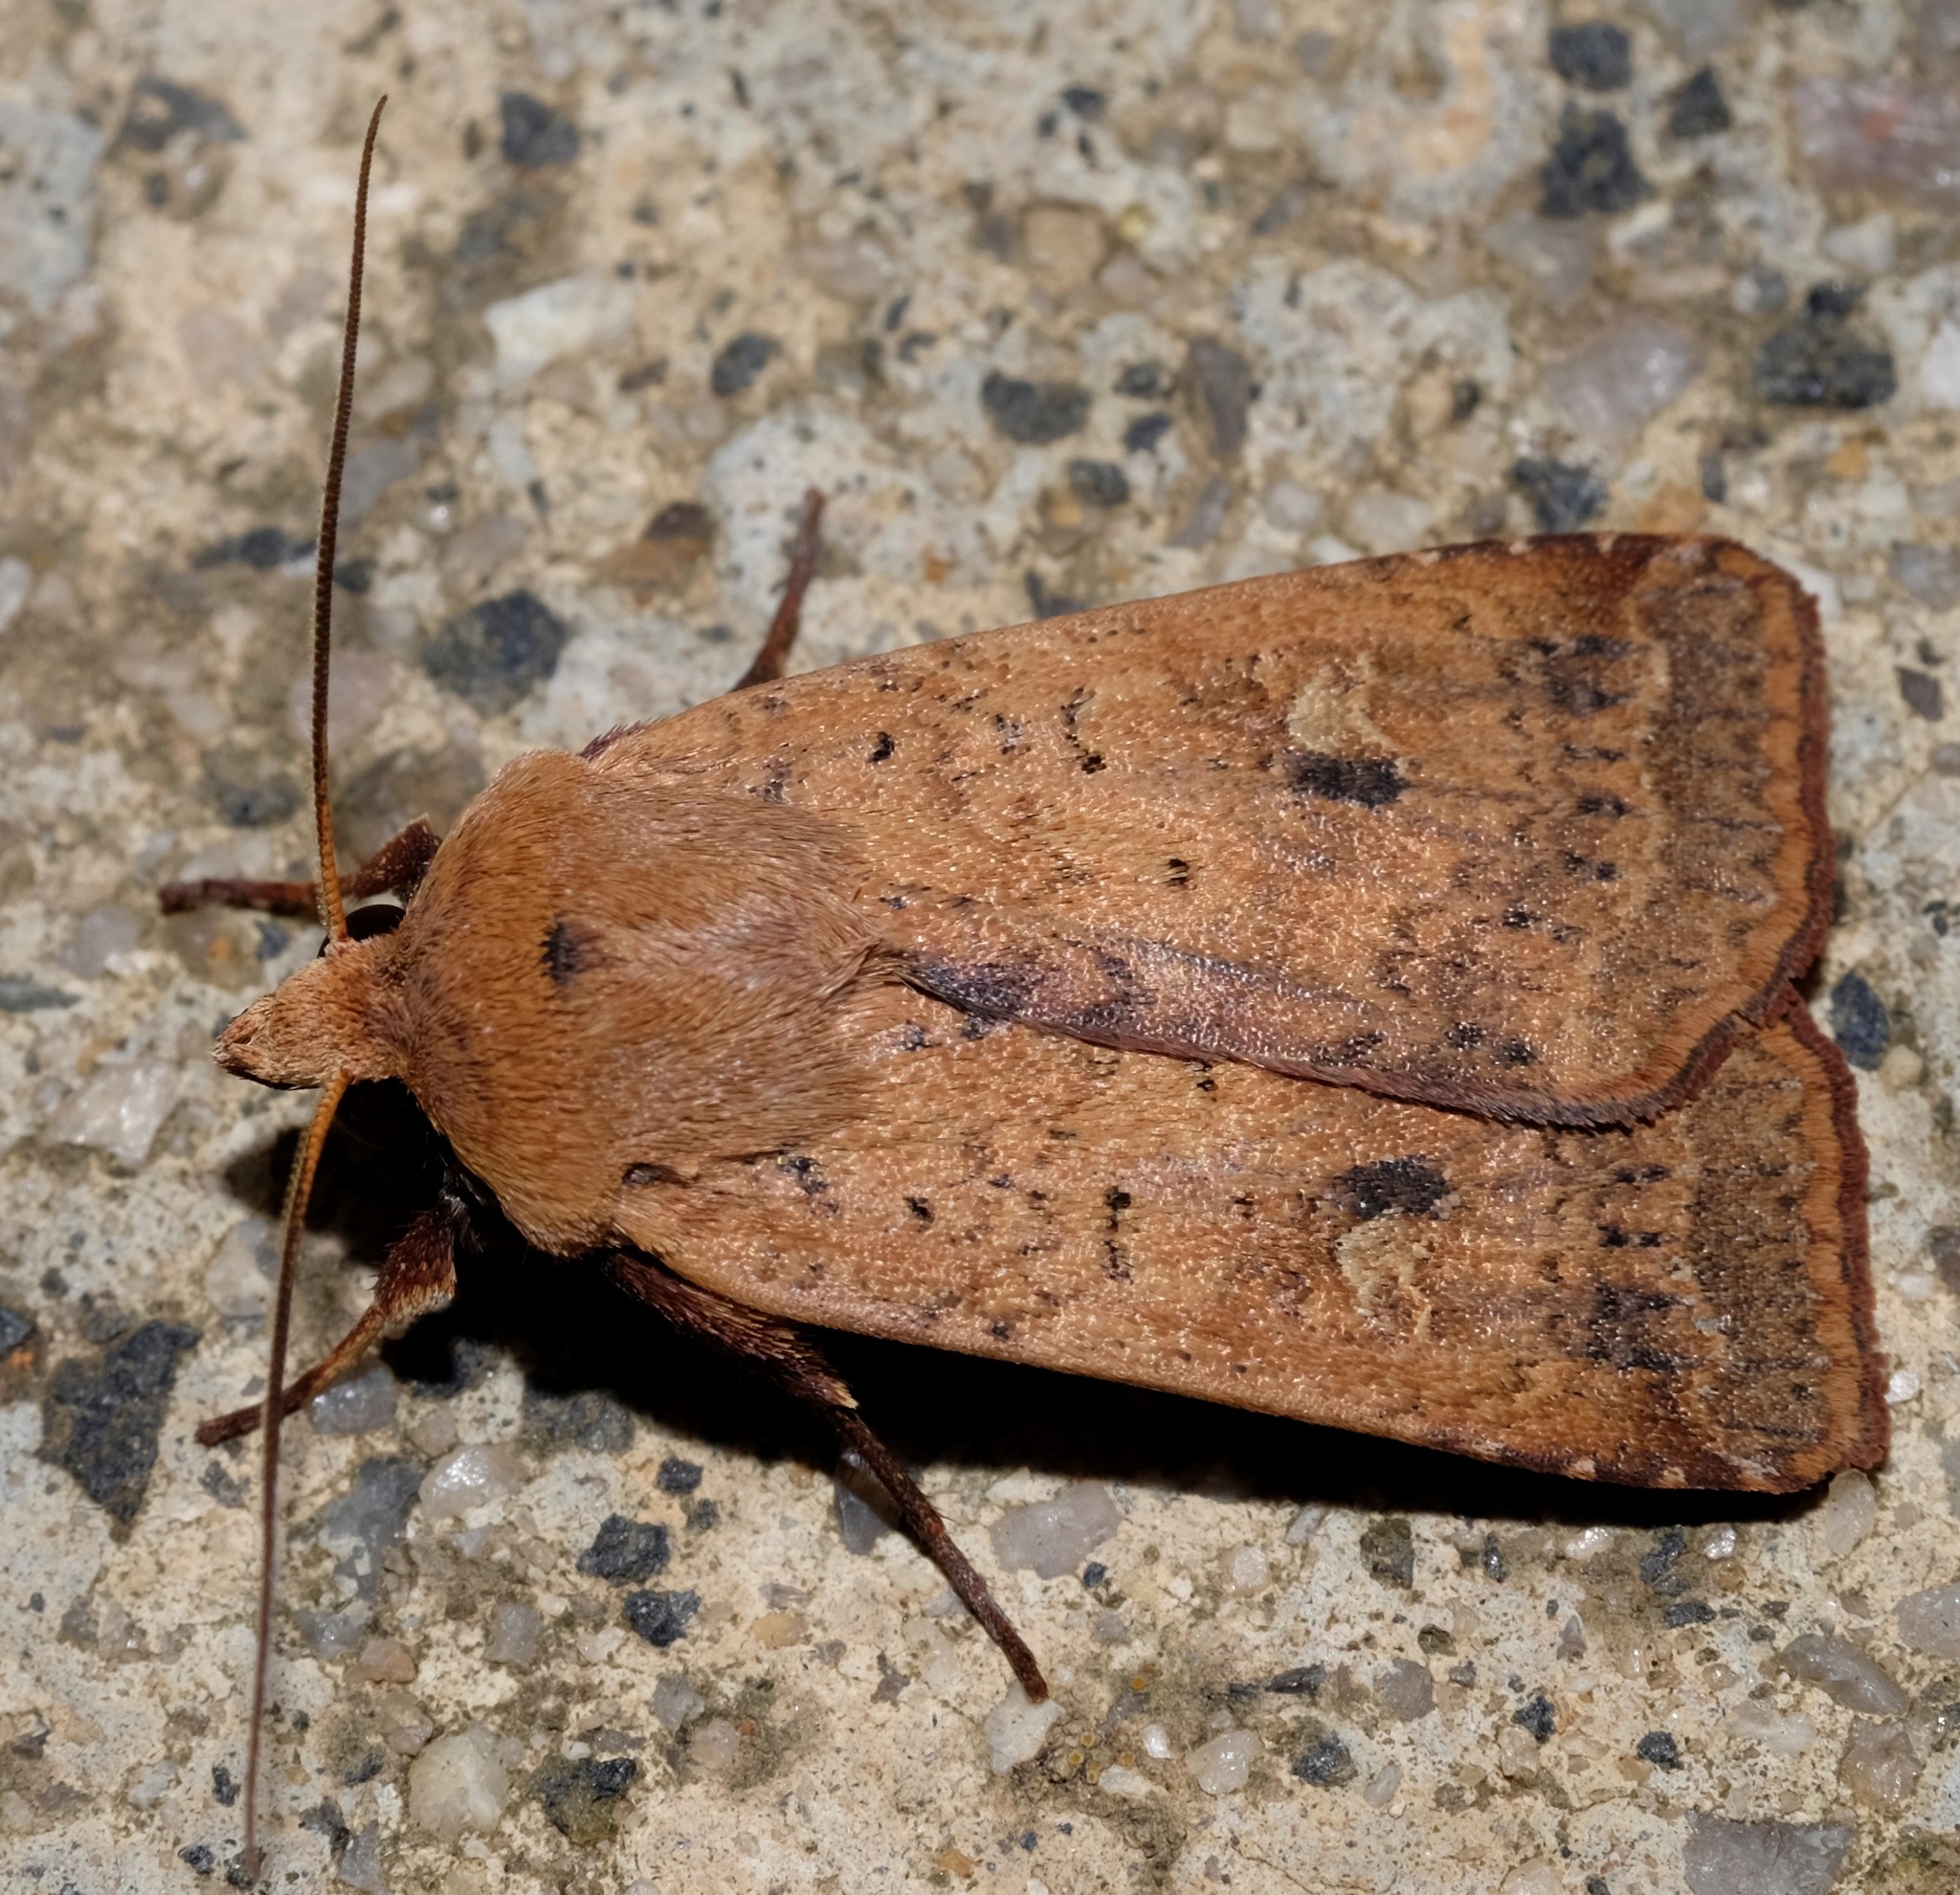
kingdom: Animalia
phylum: Arthropoda
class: Insecta
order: Lepidoptera
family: Noctuidae
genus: Diarsia
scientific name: Diarsia intermixta
